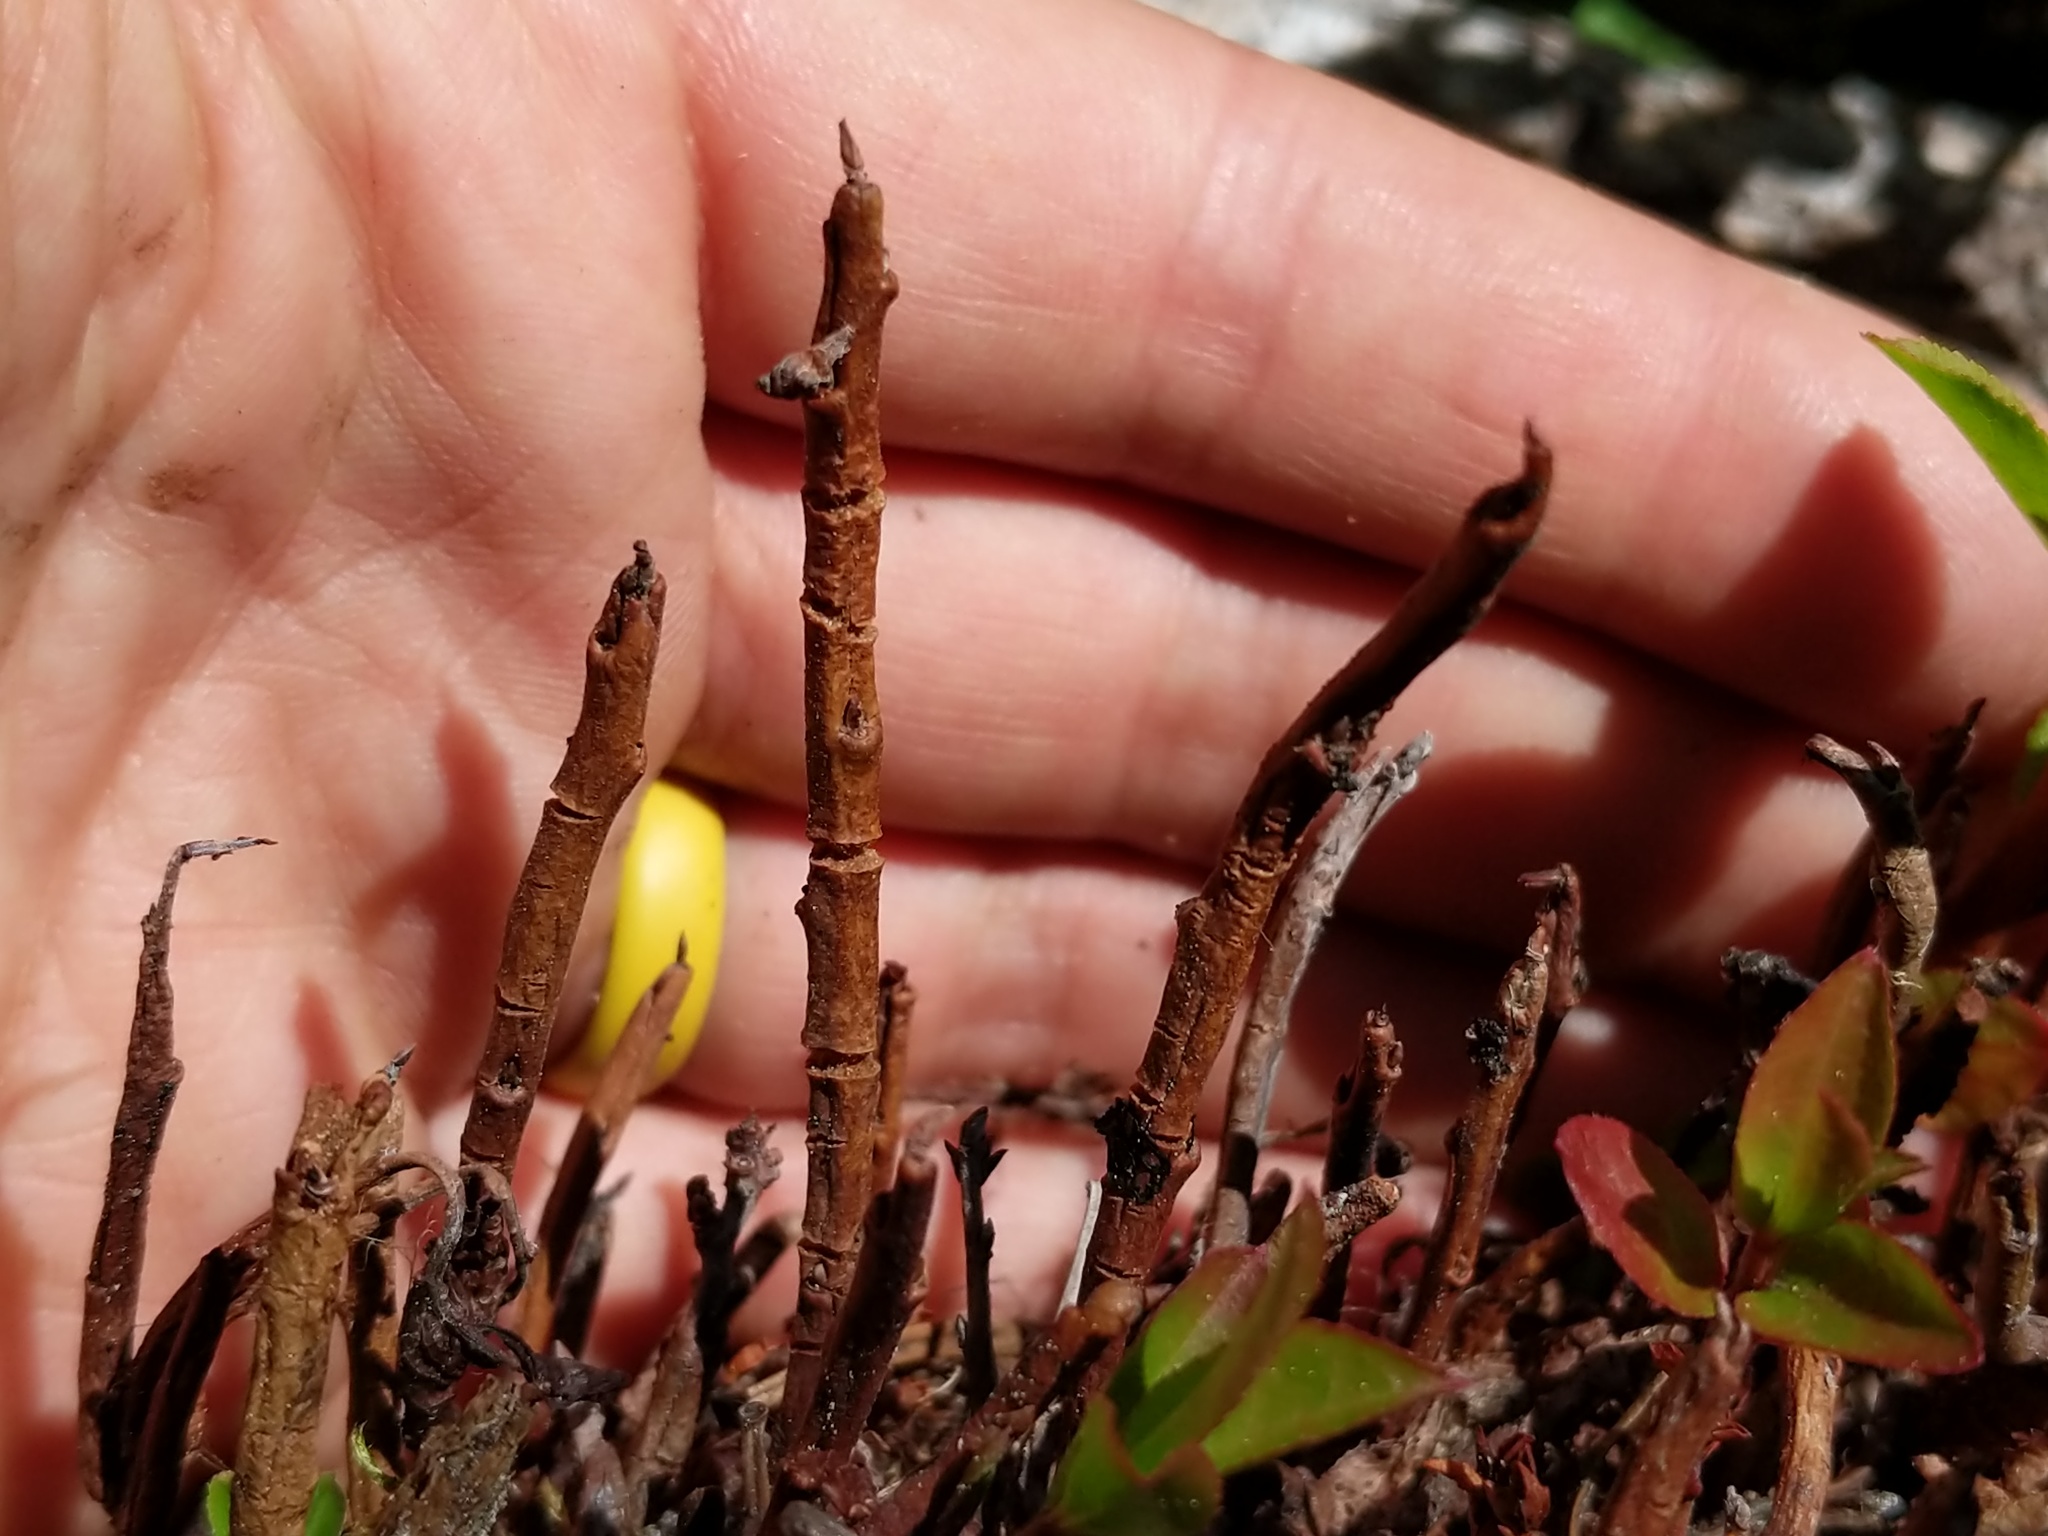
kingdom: Fungi
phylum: Basidiomycota
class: Pucciniomycetes
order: Pucciniales
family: Pucciniastraceae
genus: Calyptospora
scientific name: Calyptospora
